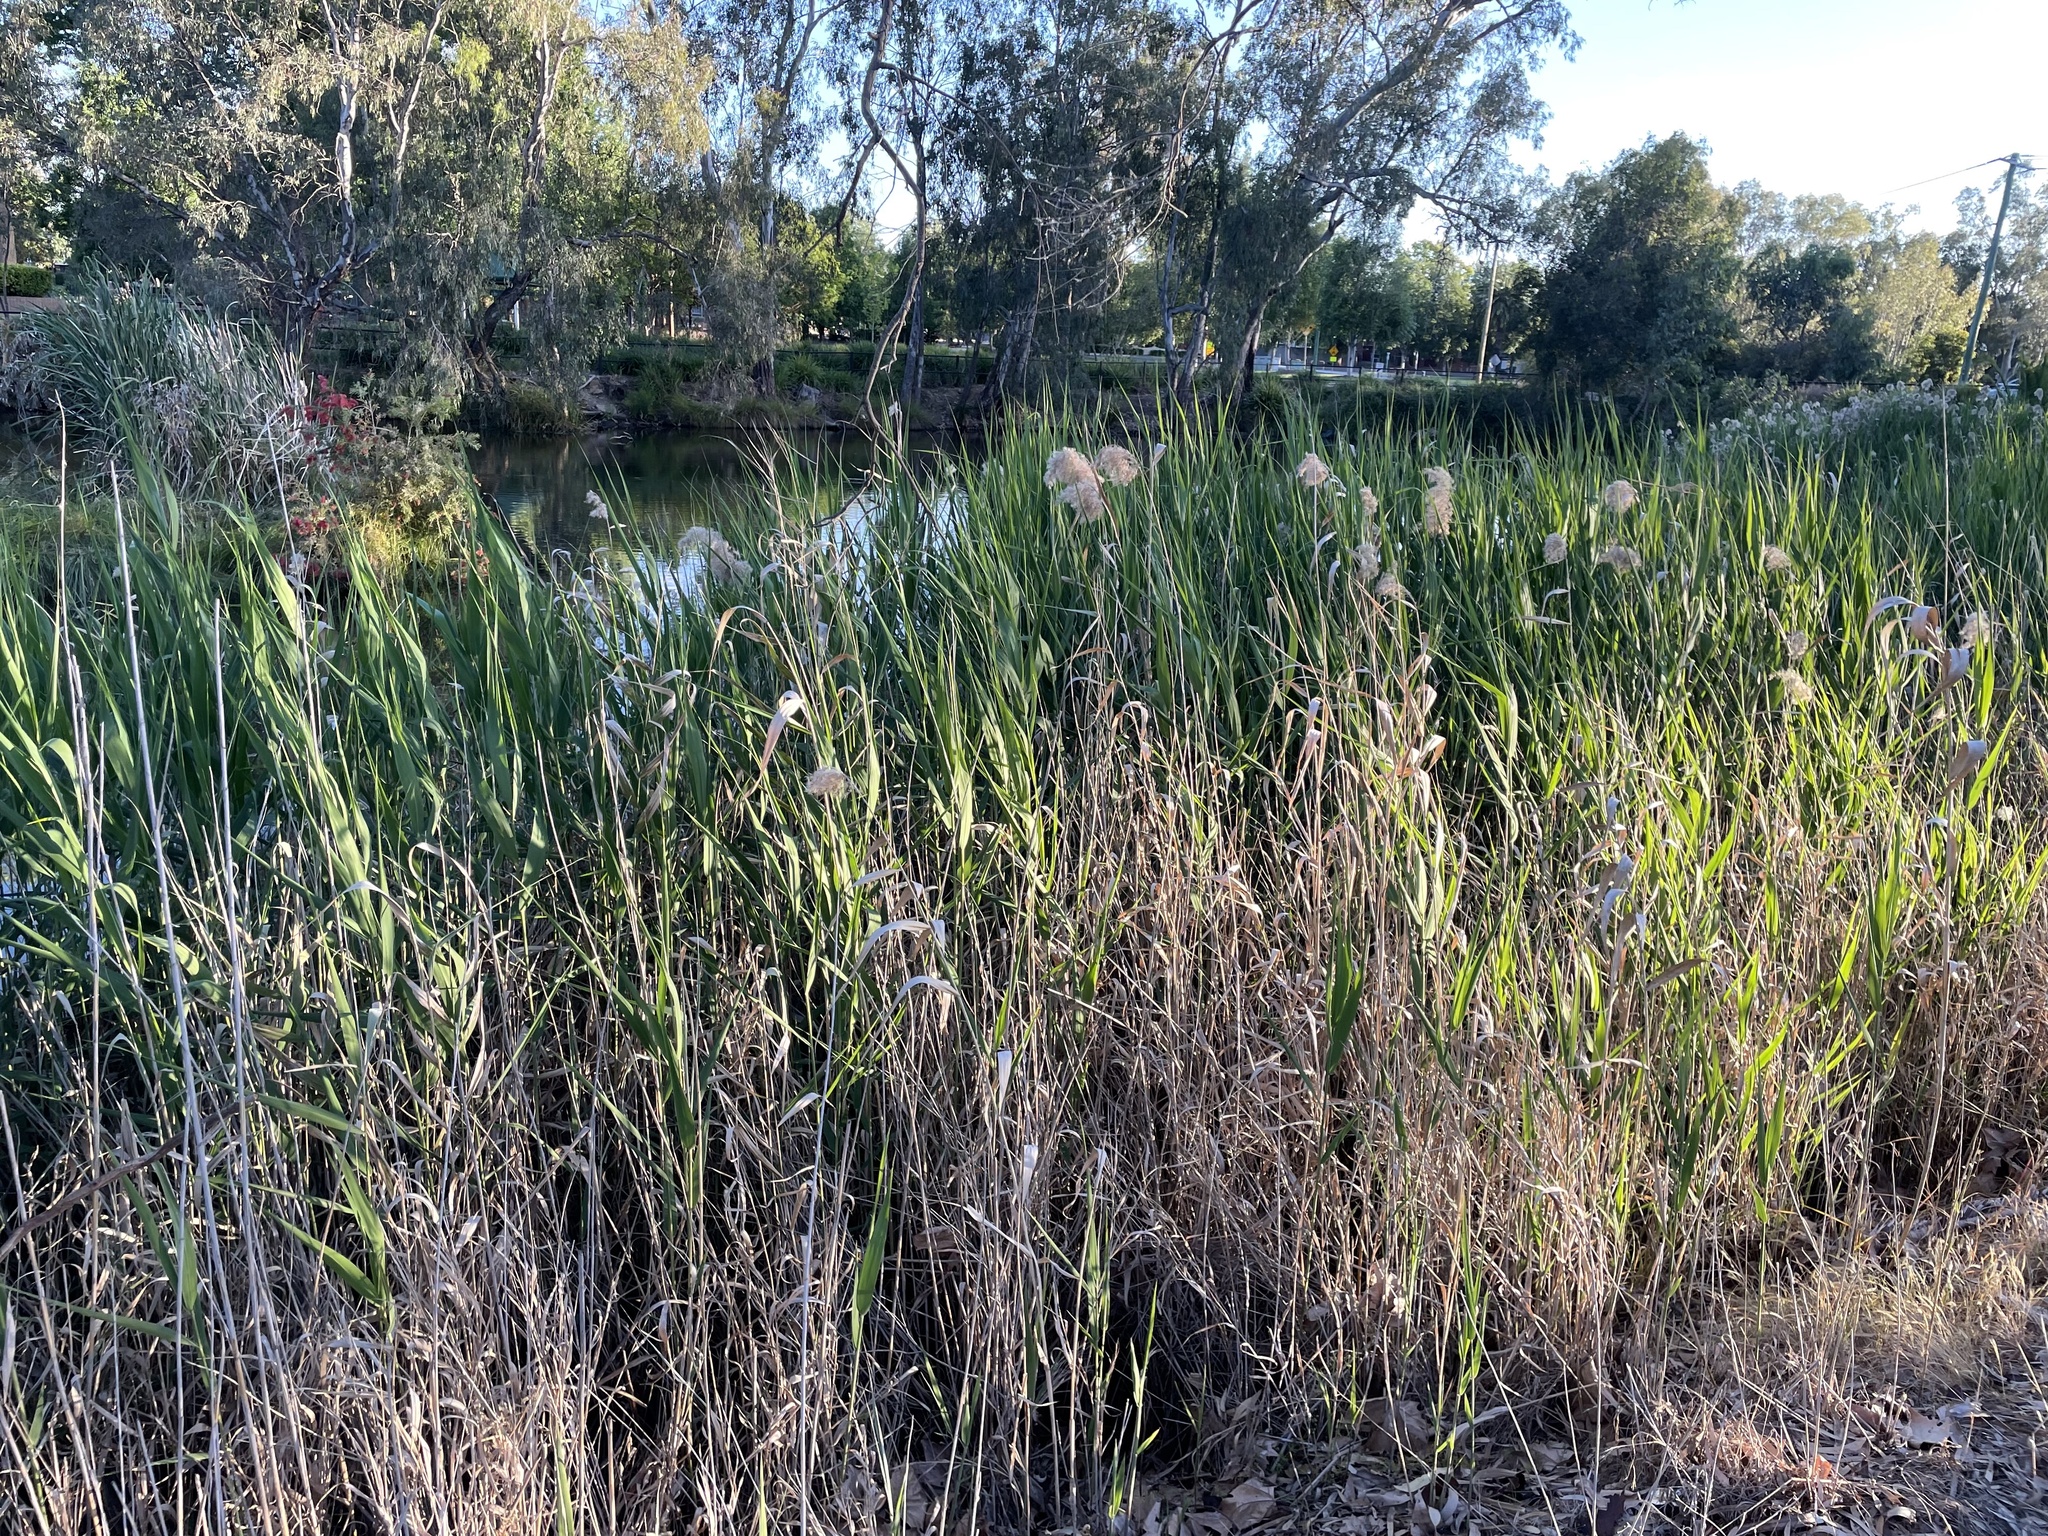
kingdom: Plantae
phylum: Tracheophyta
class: Liliopsida
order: Poales
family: Poaceae
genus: Phragmites
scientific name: Phragmites australis
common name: Common reed
